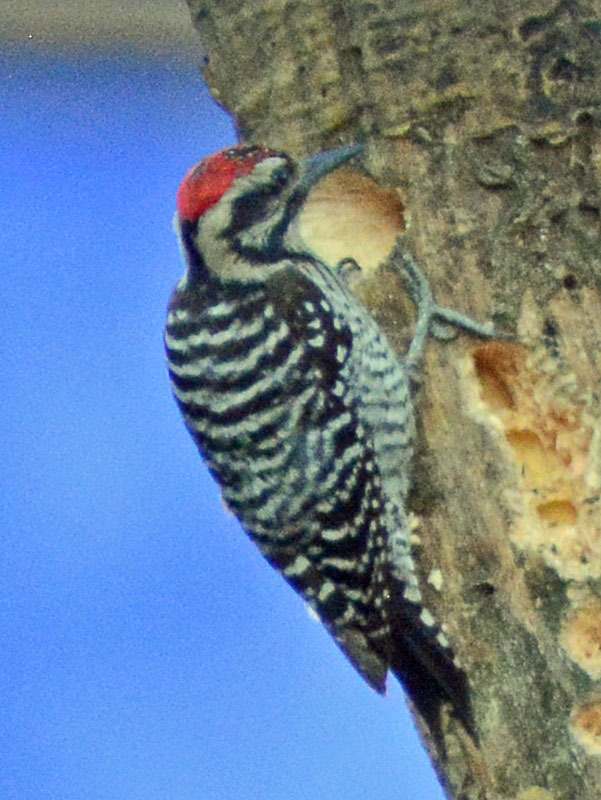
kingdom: Animalia
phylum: Chordata
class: Aves
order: Piciformes
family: Picidae
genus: Dryobates
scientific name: Dryobates scalaris
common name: Ladder-backed woodpecker
